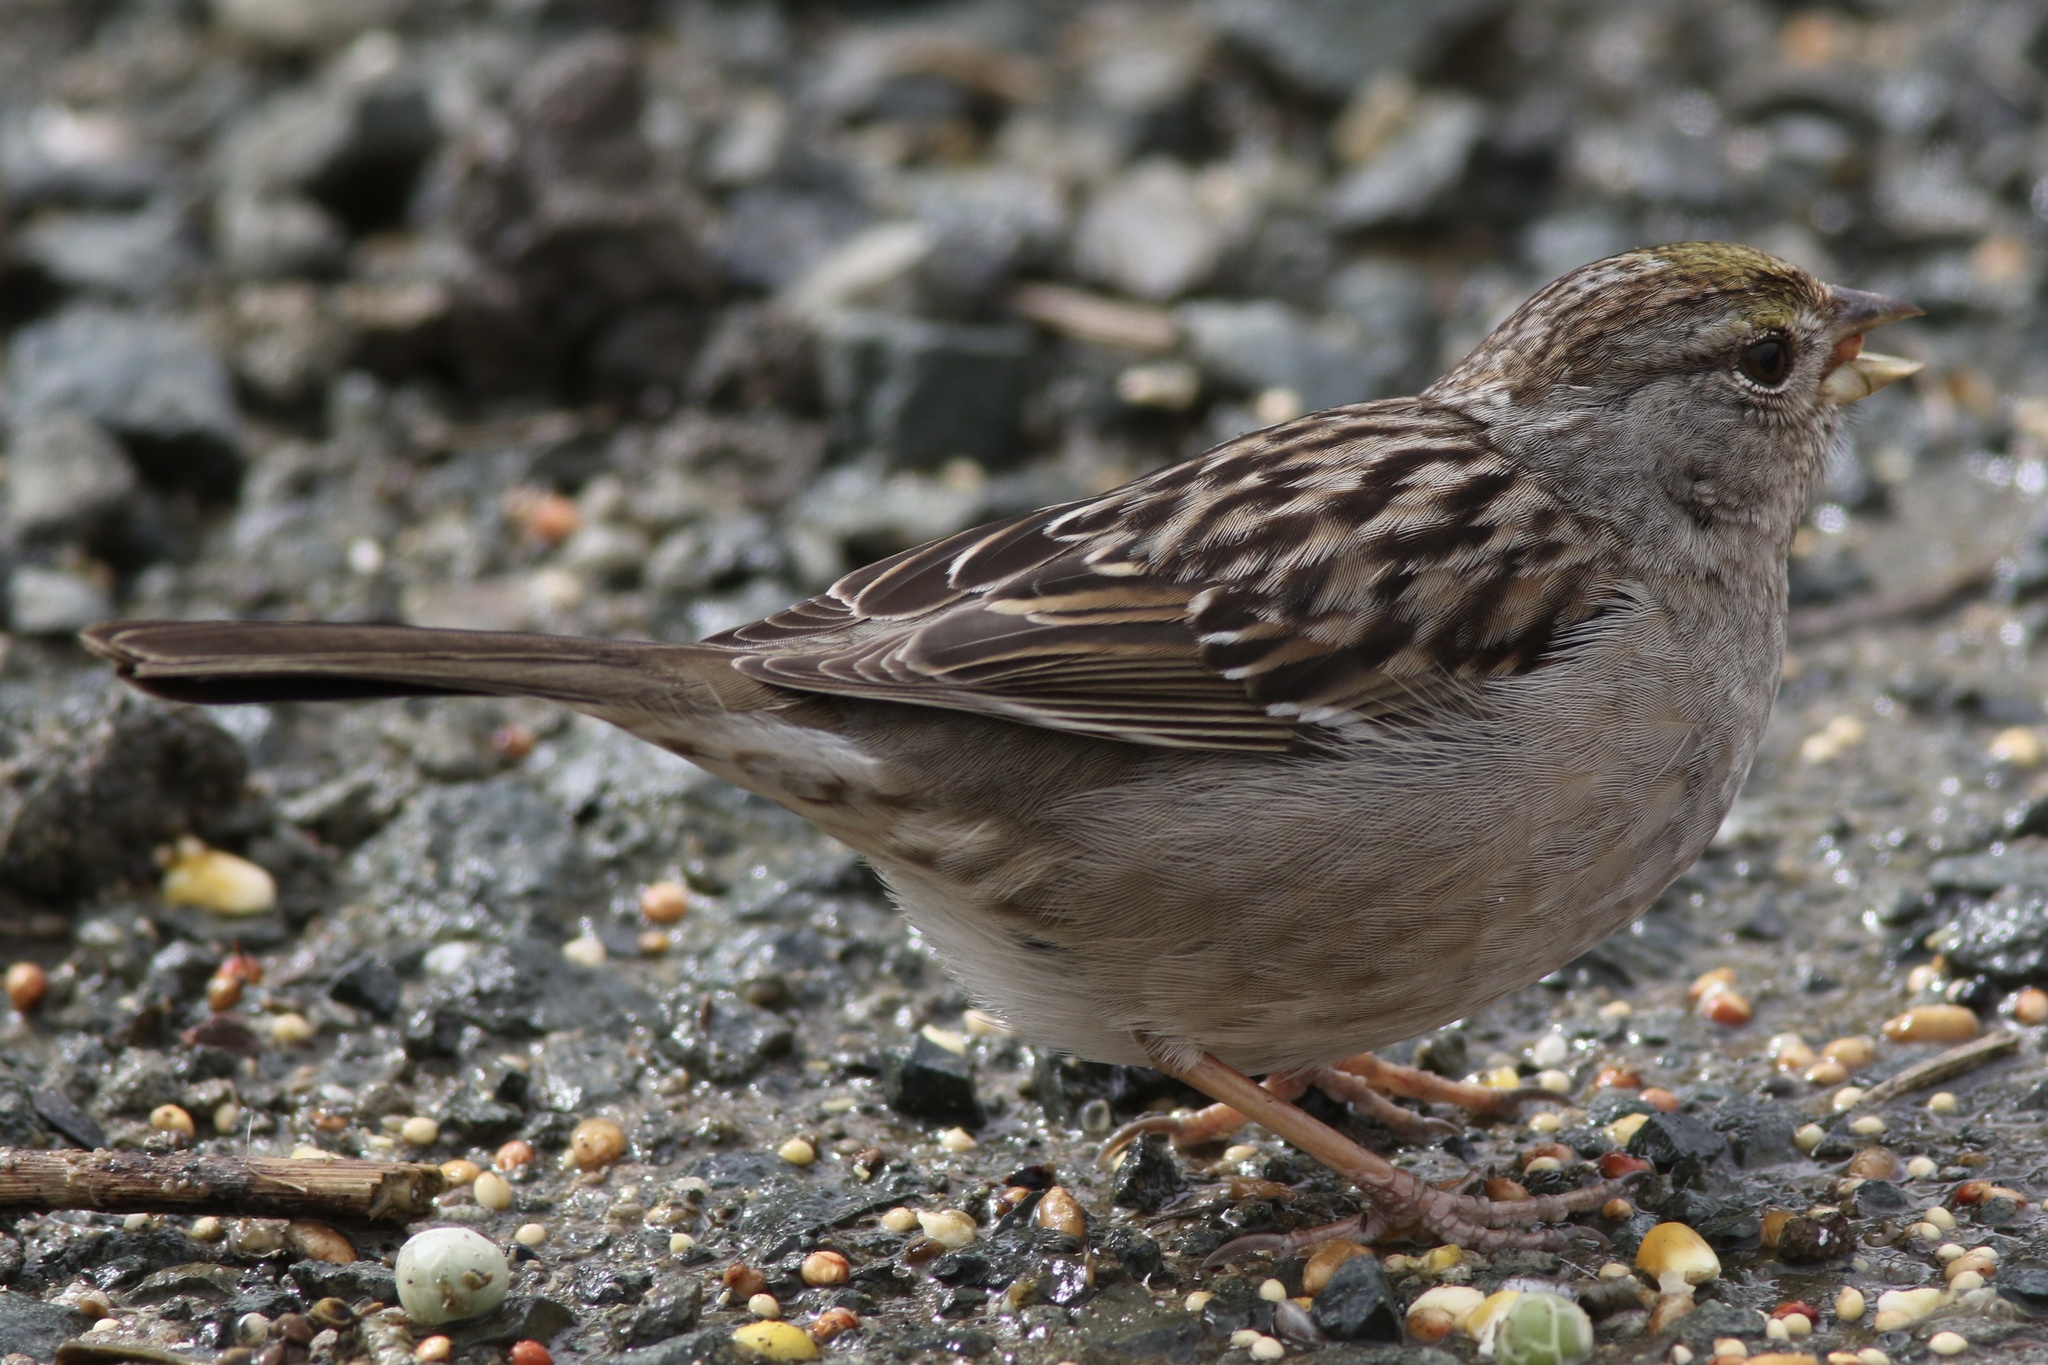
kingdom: Animalia
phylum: Chordata
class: Aves
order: Passeriformes
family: Passerellidae
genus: Zonotrichia
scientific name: Zonotrichia atricapilla
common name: Golden-crowned sparrow
